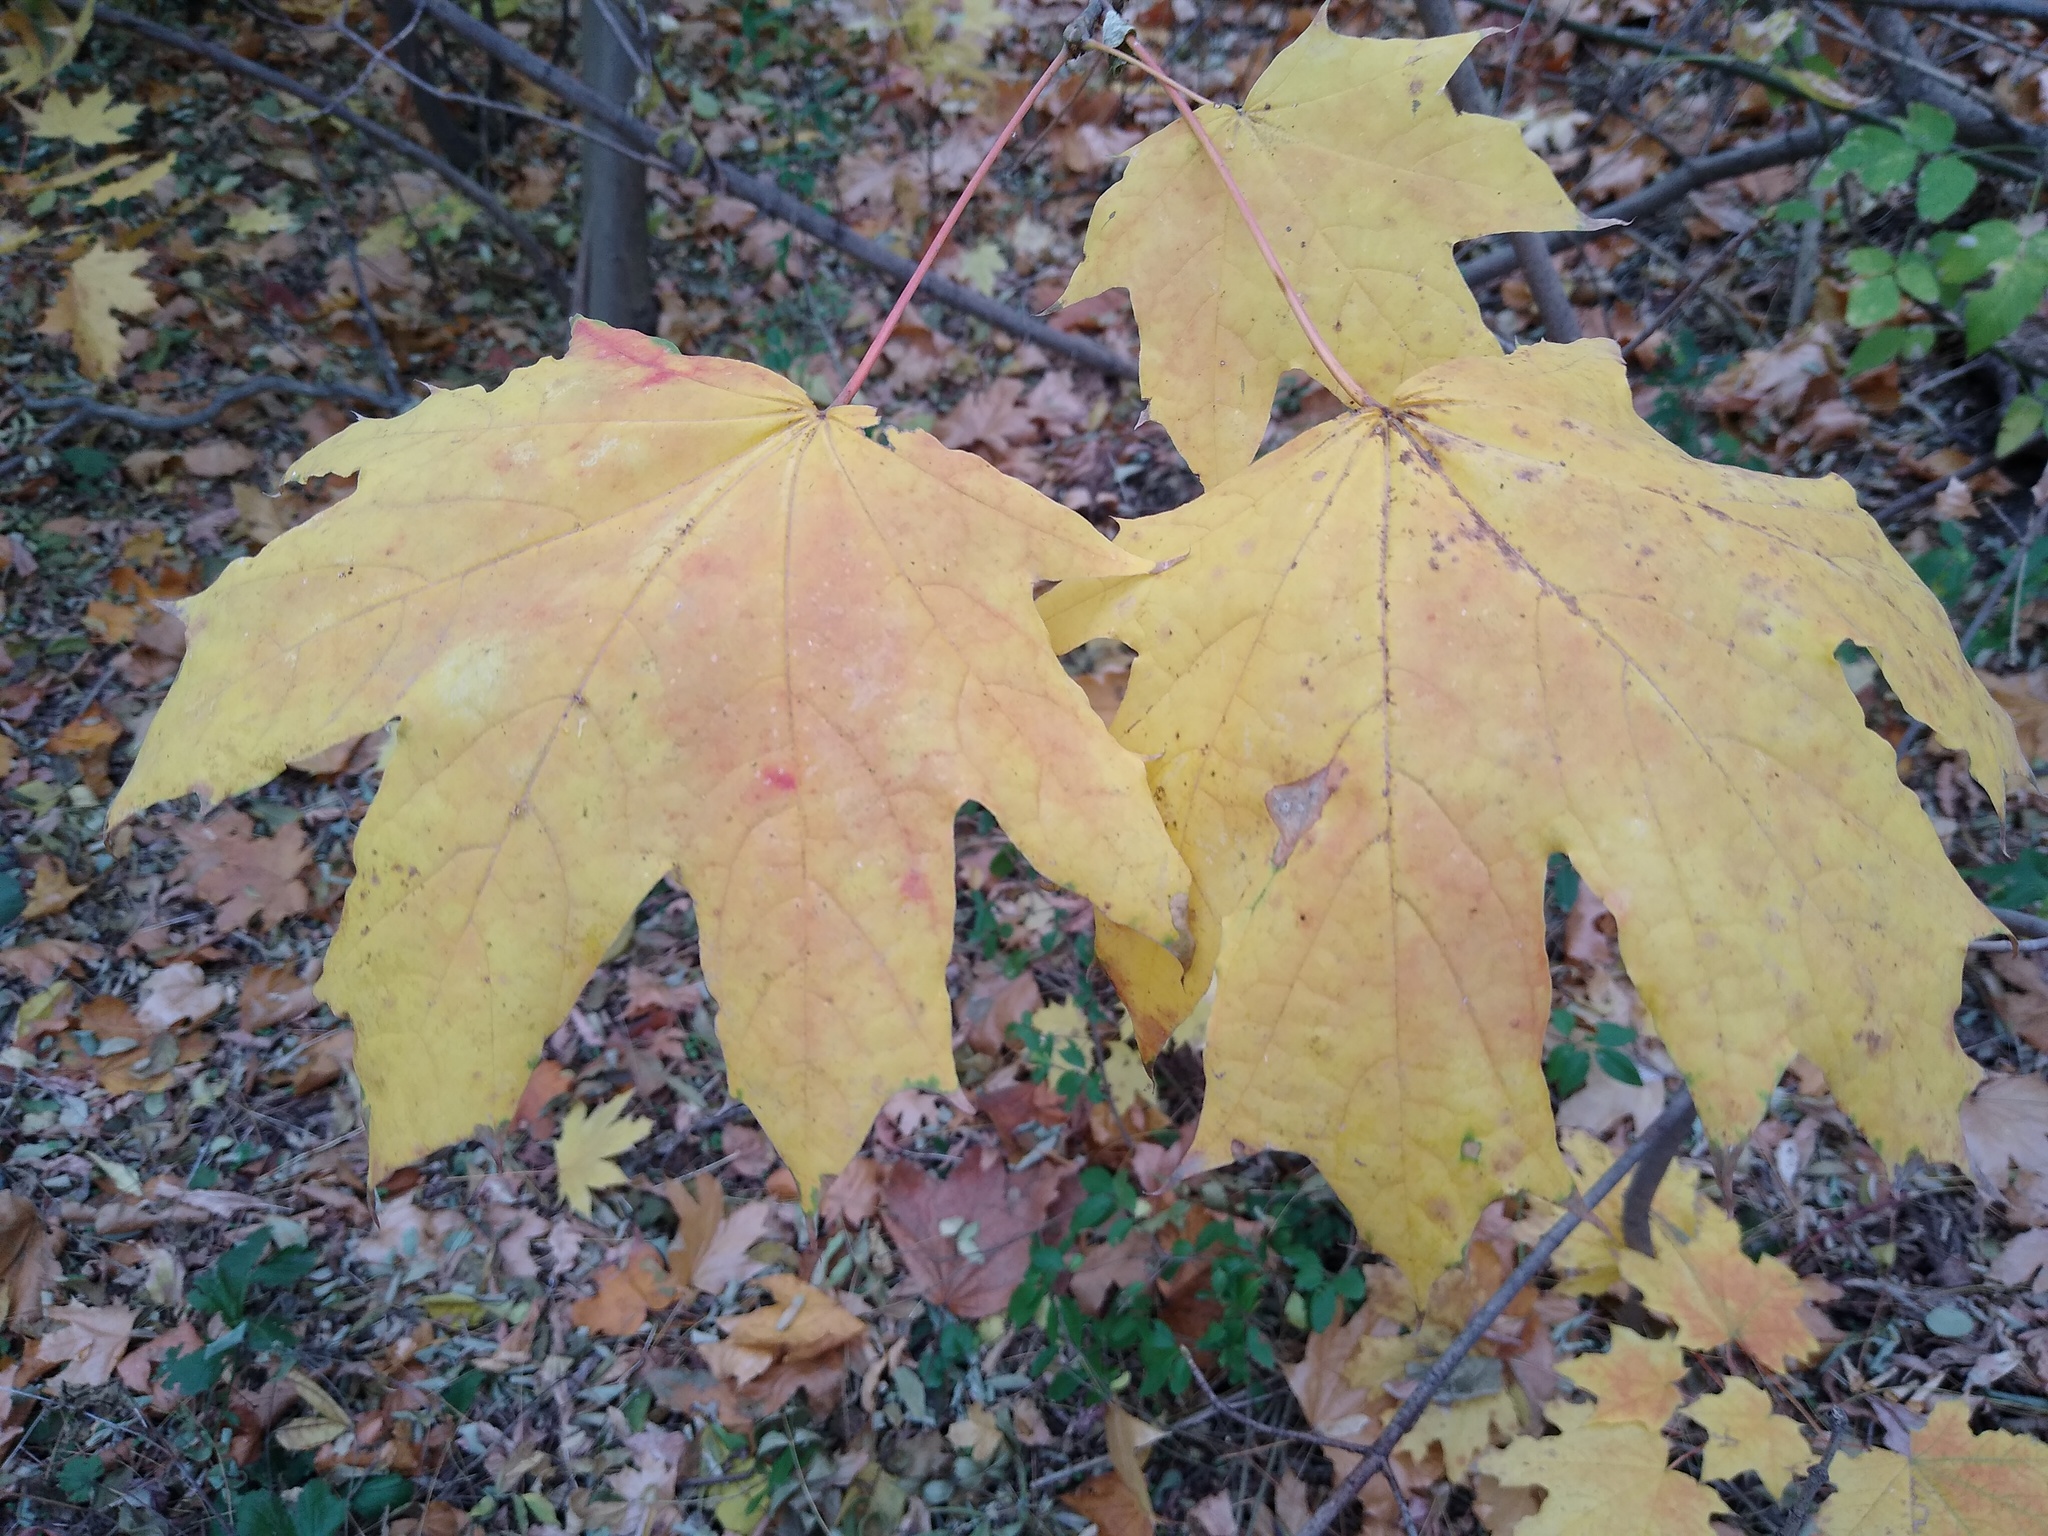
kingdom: Plantae
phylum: Tracheophyta
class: Magnoliopsida
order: Sapindales
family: Sapindaceae
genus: Acer
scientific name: Acer platanoides
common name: Norway maple
